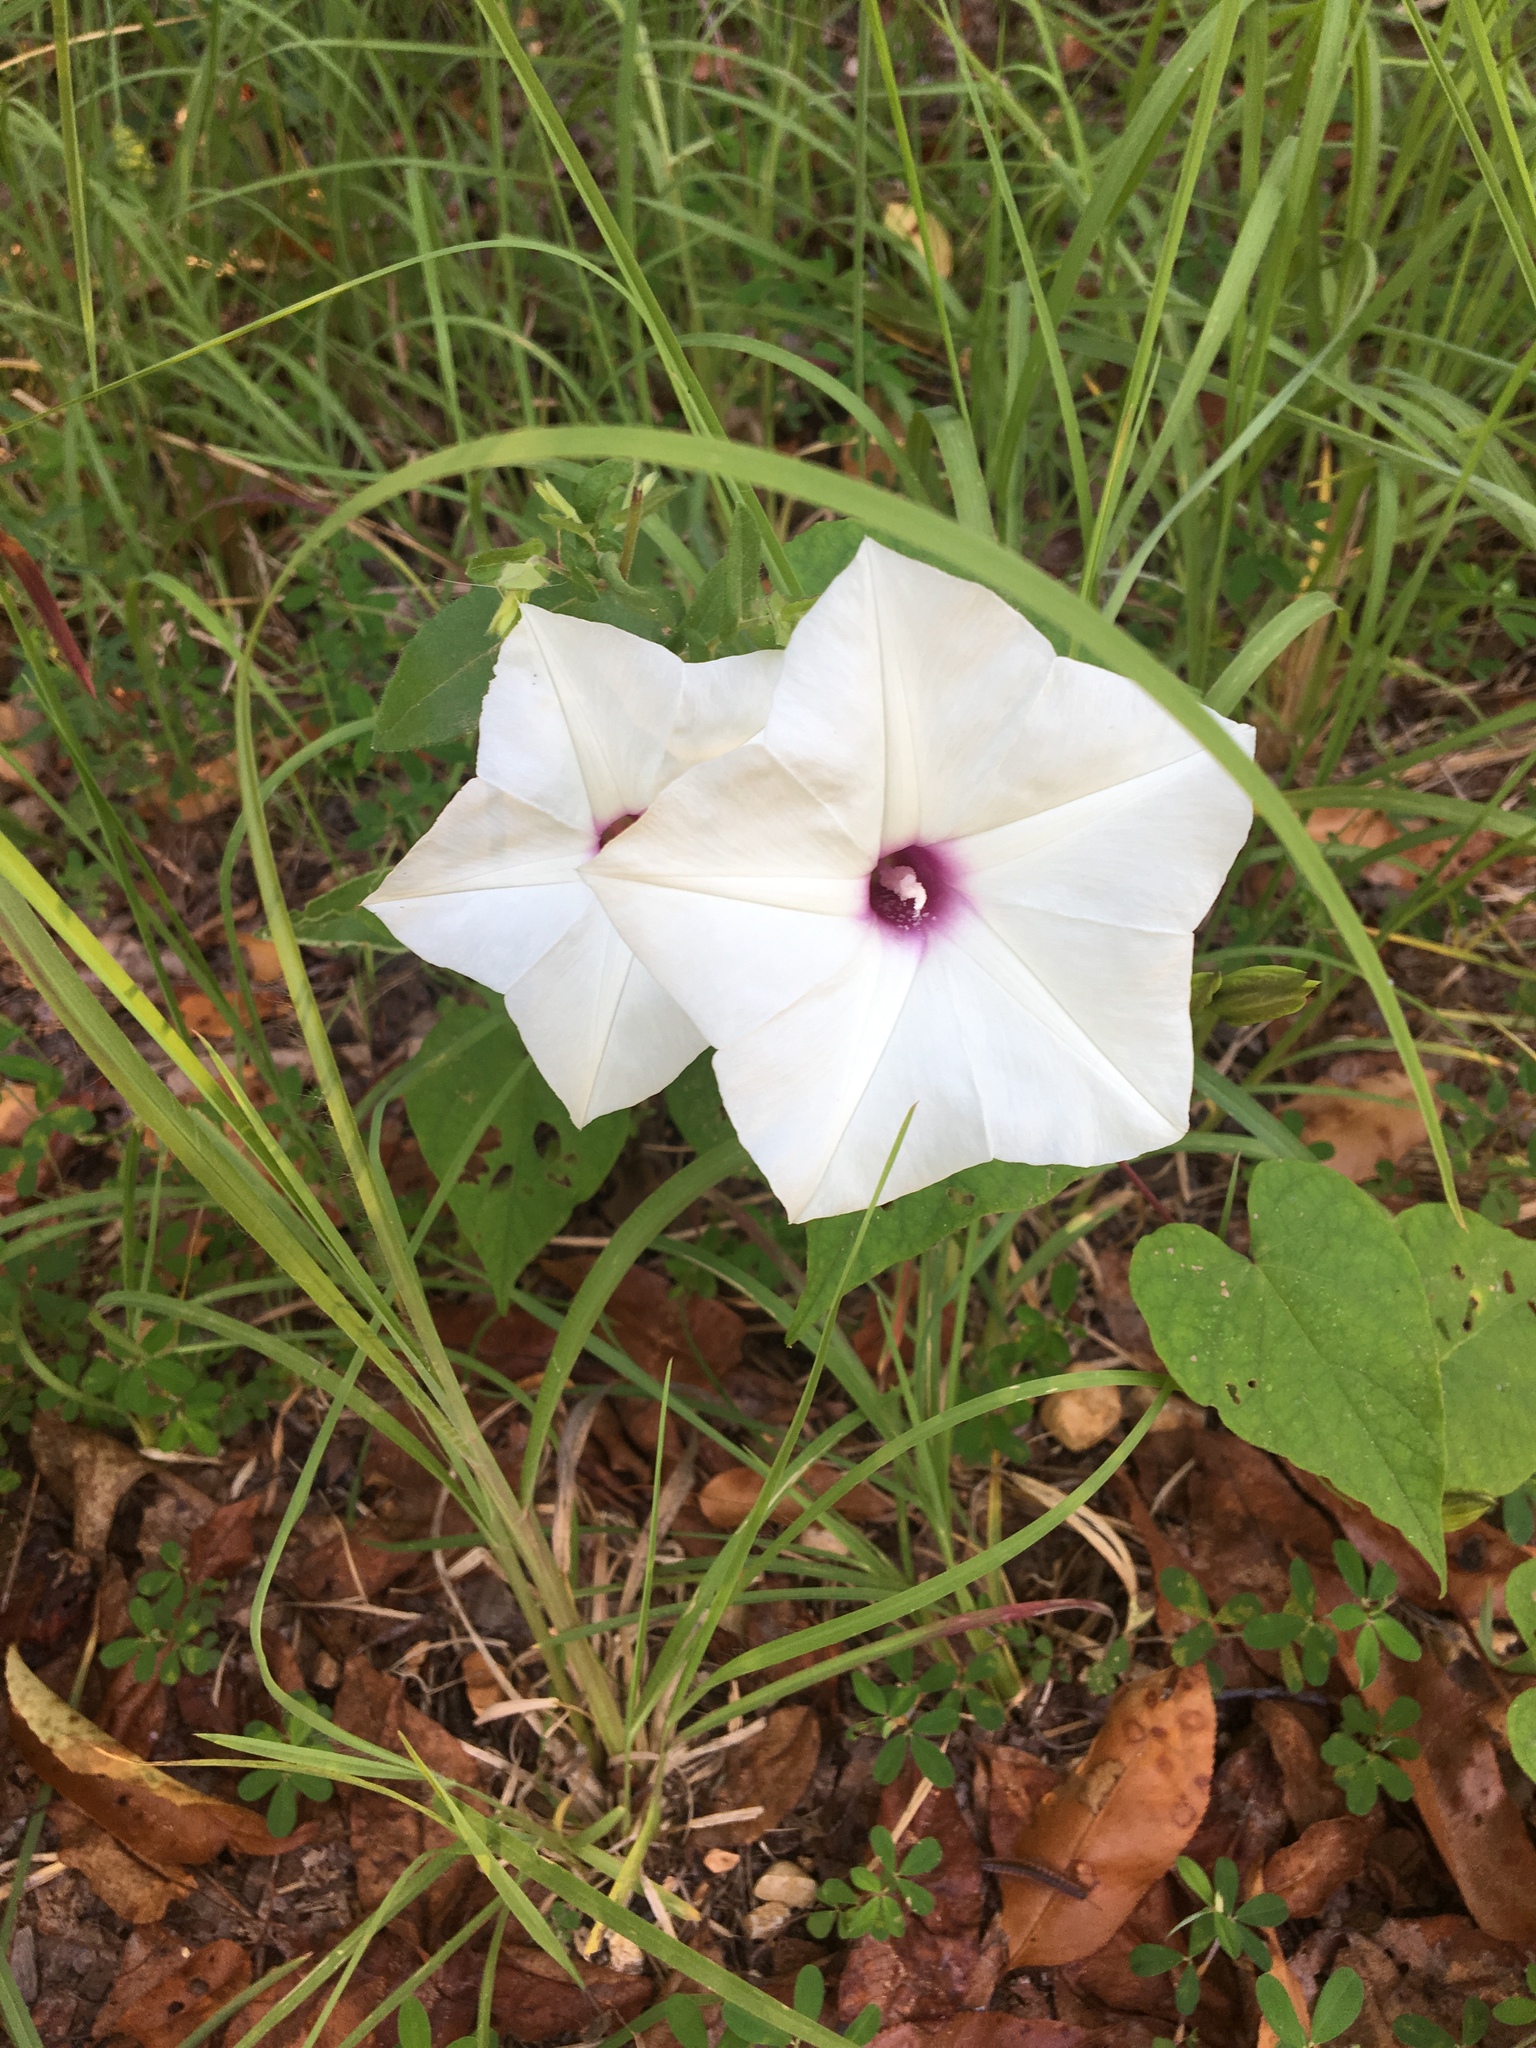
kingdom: Plantae
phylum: Tracheophyta
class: Magnoliopsida
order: Solanales
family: Convolvulaceae
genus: Ipomoea
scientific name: Ipomoea pandurata
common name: Man-of-the-earth
